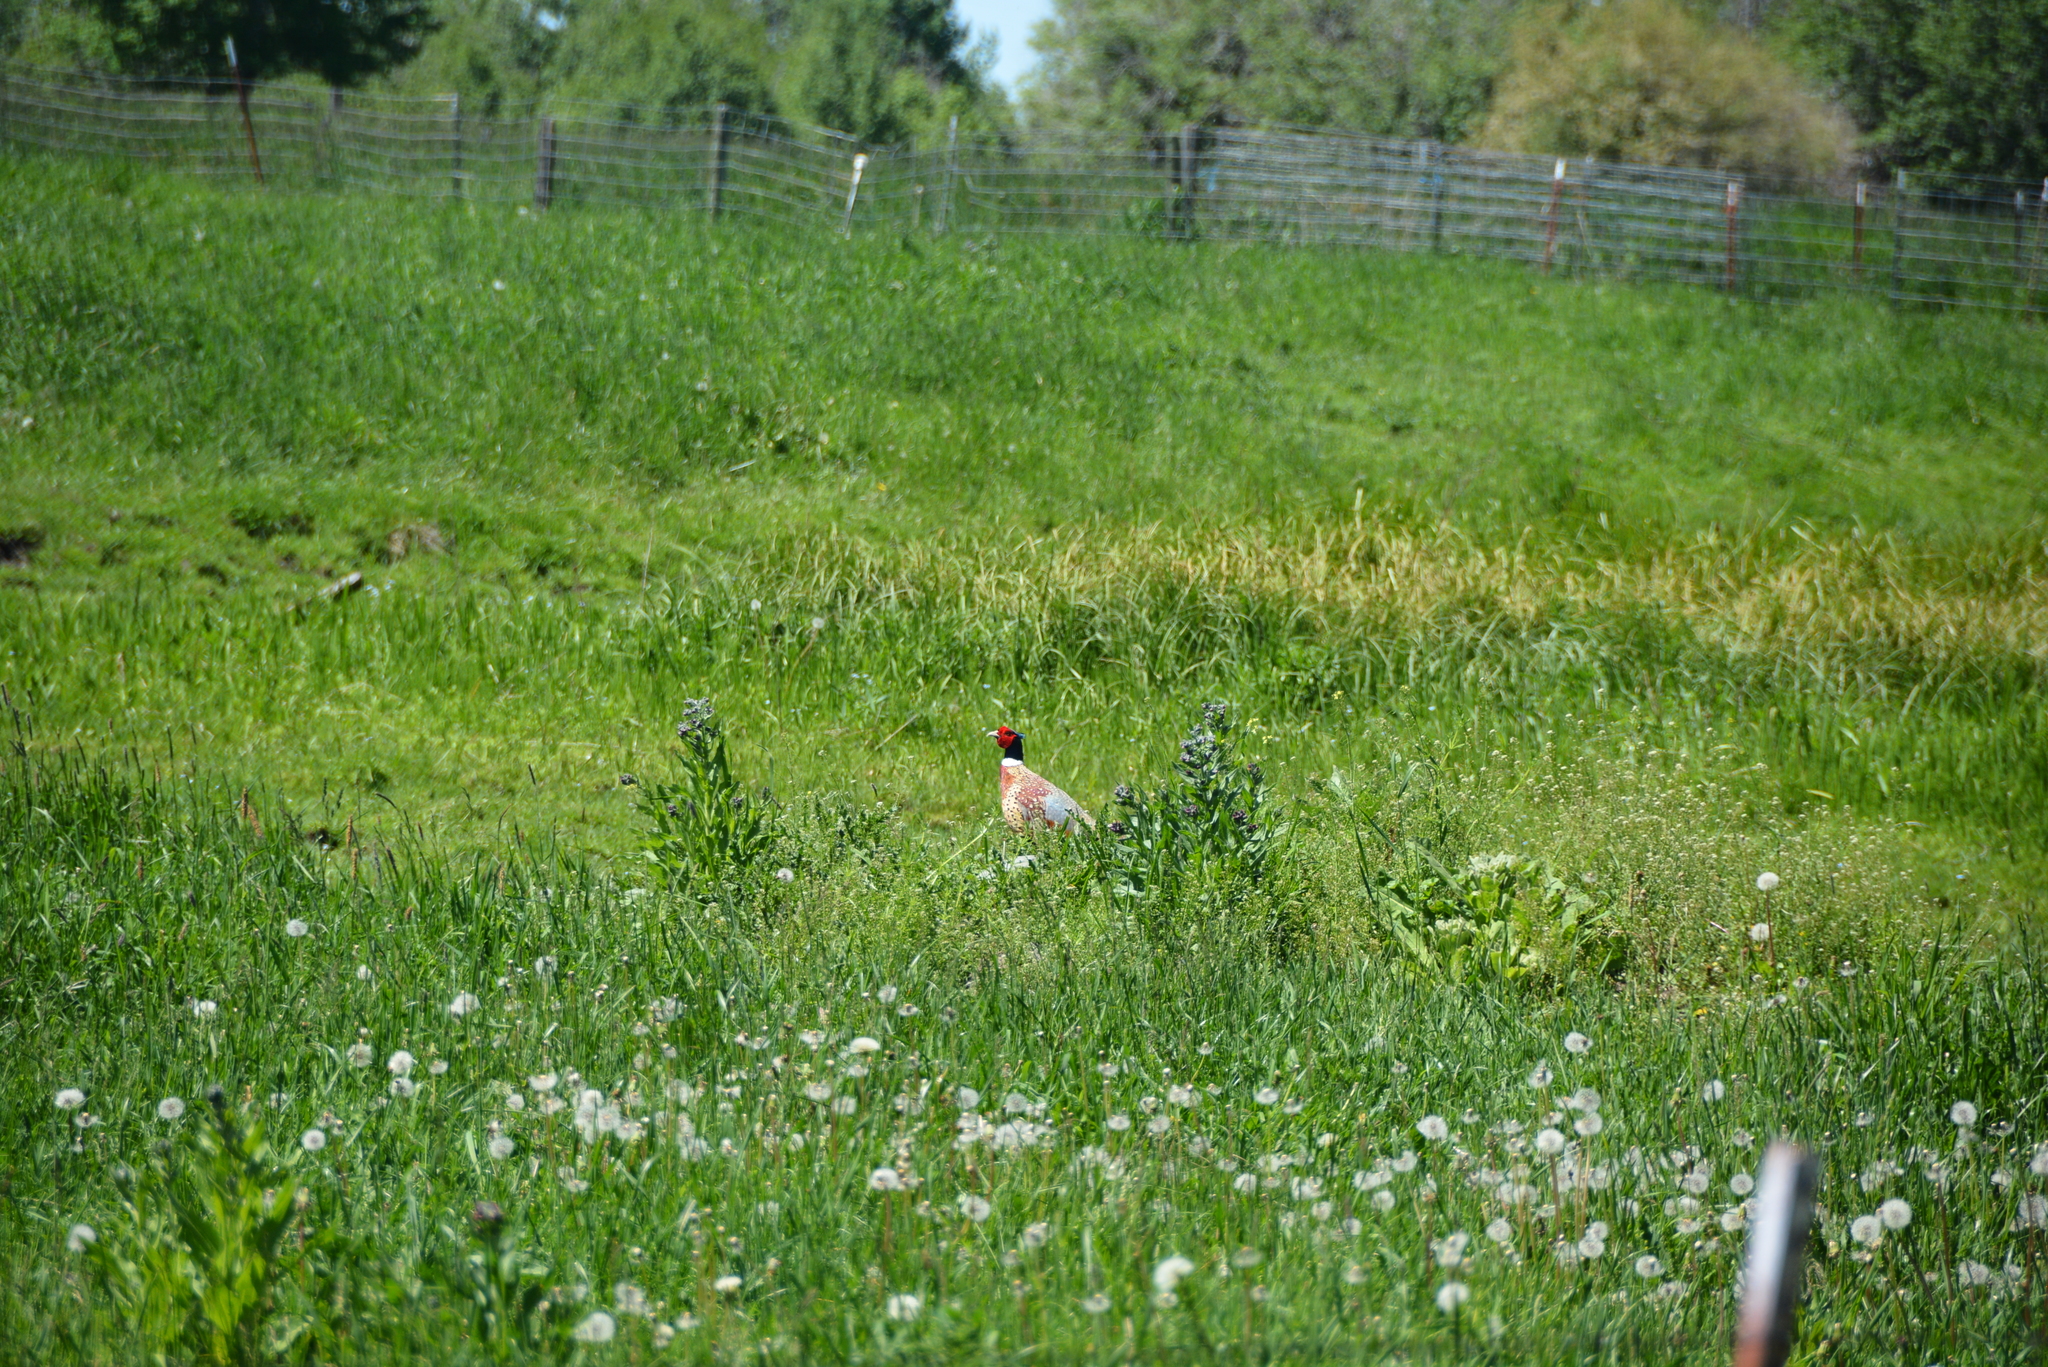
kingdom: Animalia
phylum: Chordata
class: Aves
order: Galliformes
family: Phasianidae
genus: Phasianus
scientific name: Phasianus colchicus
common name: Common pheasant
